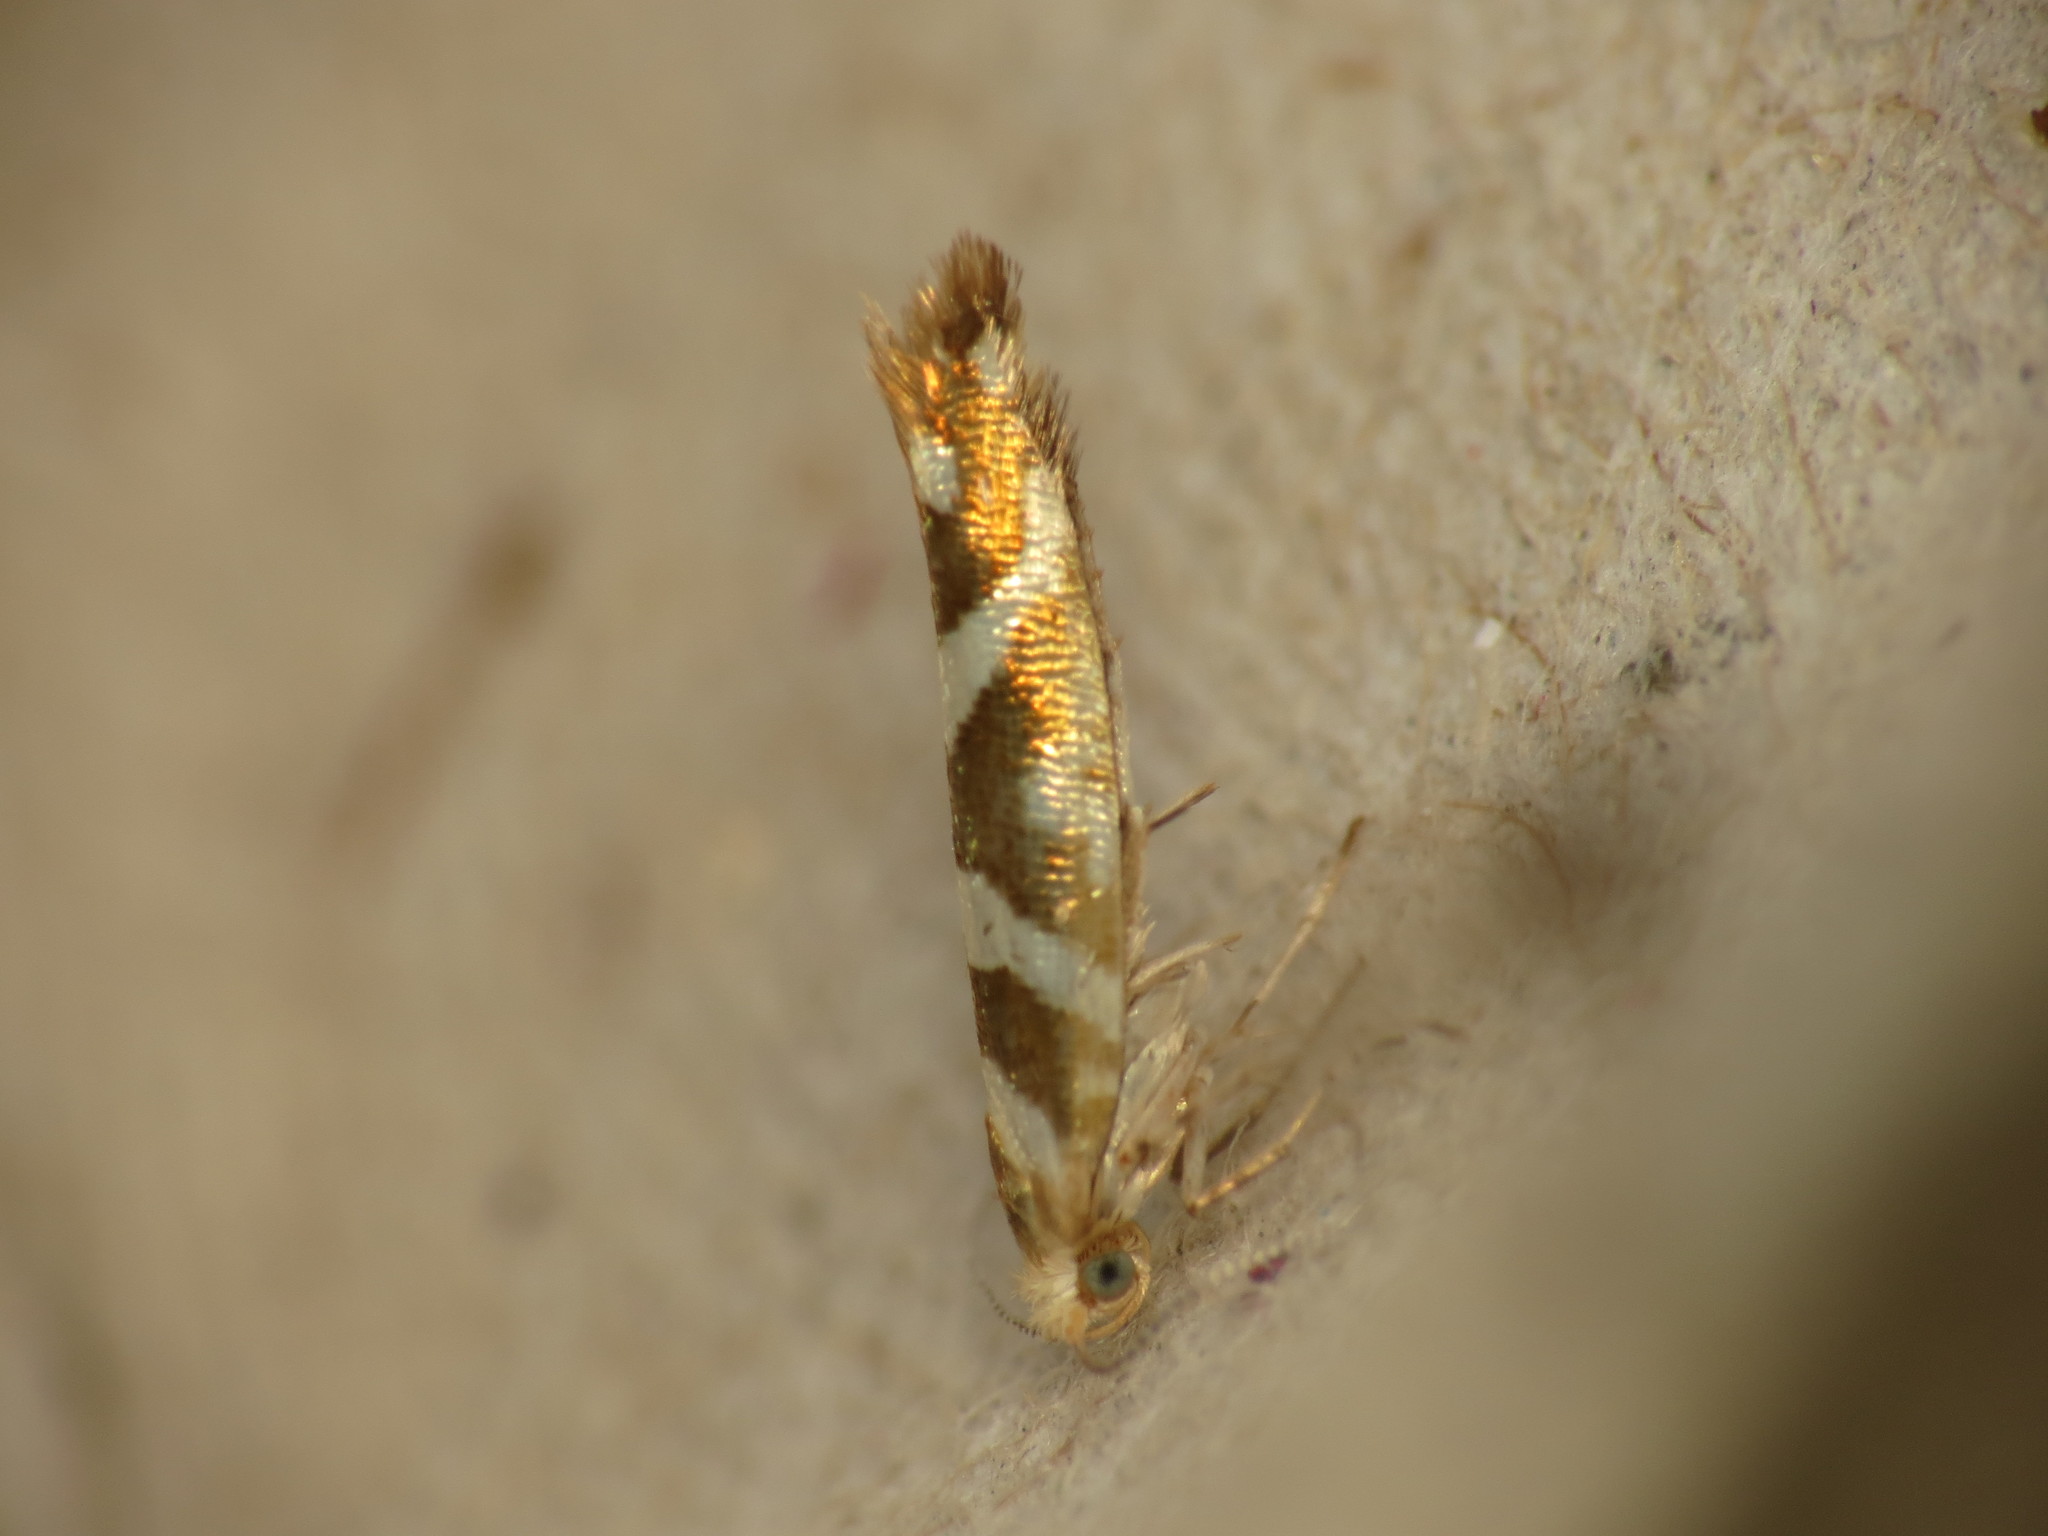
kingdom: Animalia
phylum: Arthropoda
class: Insecta
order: Lepidoptera
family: Argyresthiidae
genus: Argyresthia
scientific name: Argyresthia goedartella
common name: Golden argent
